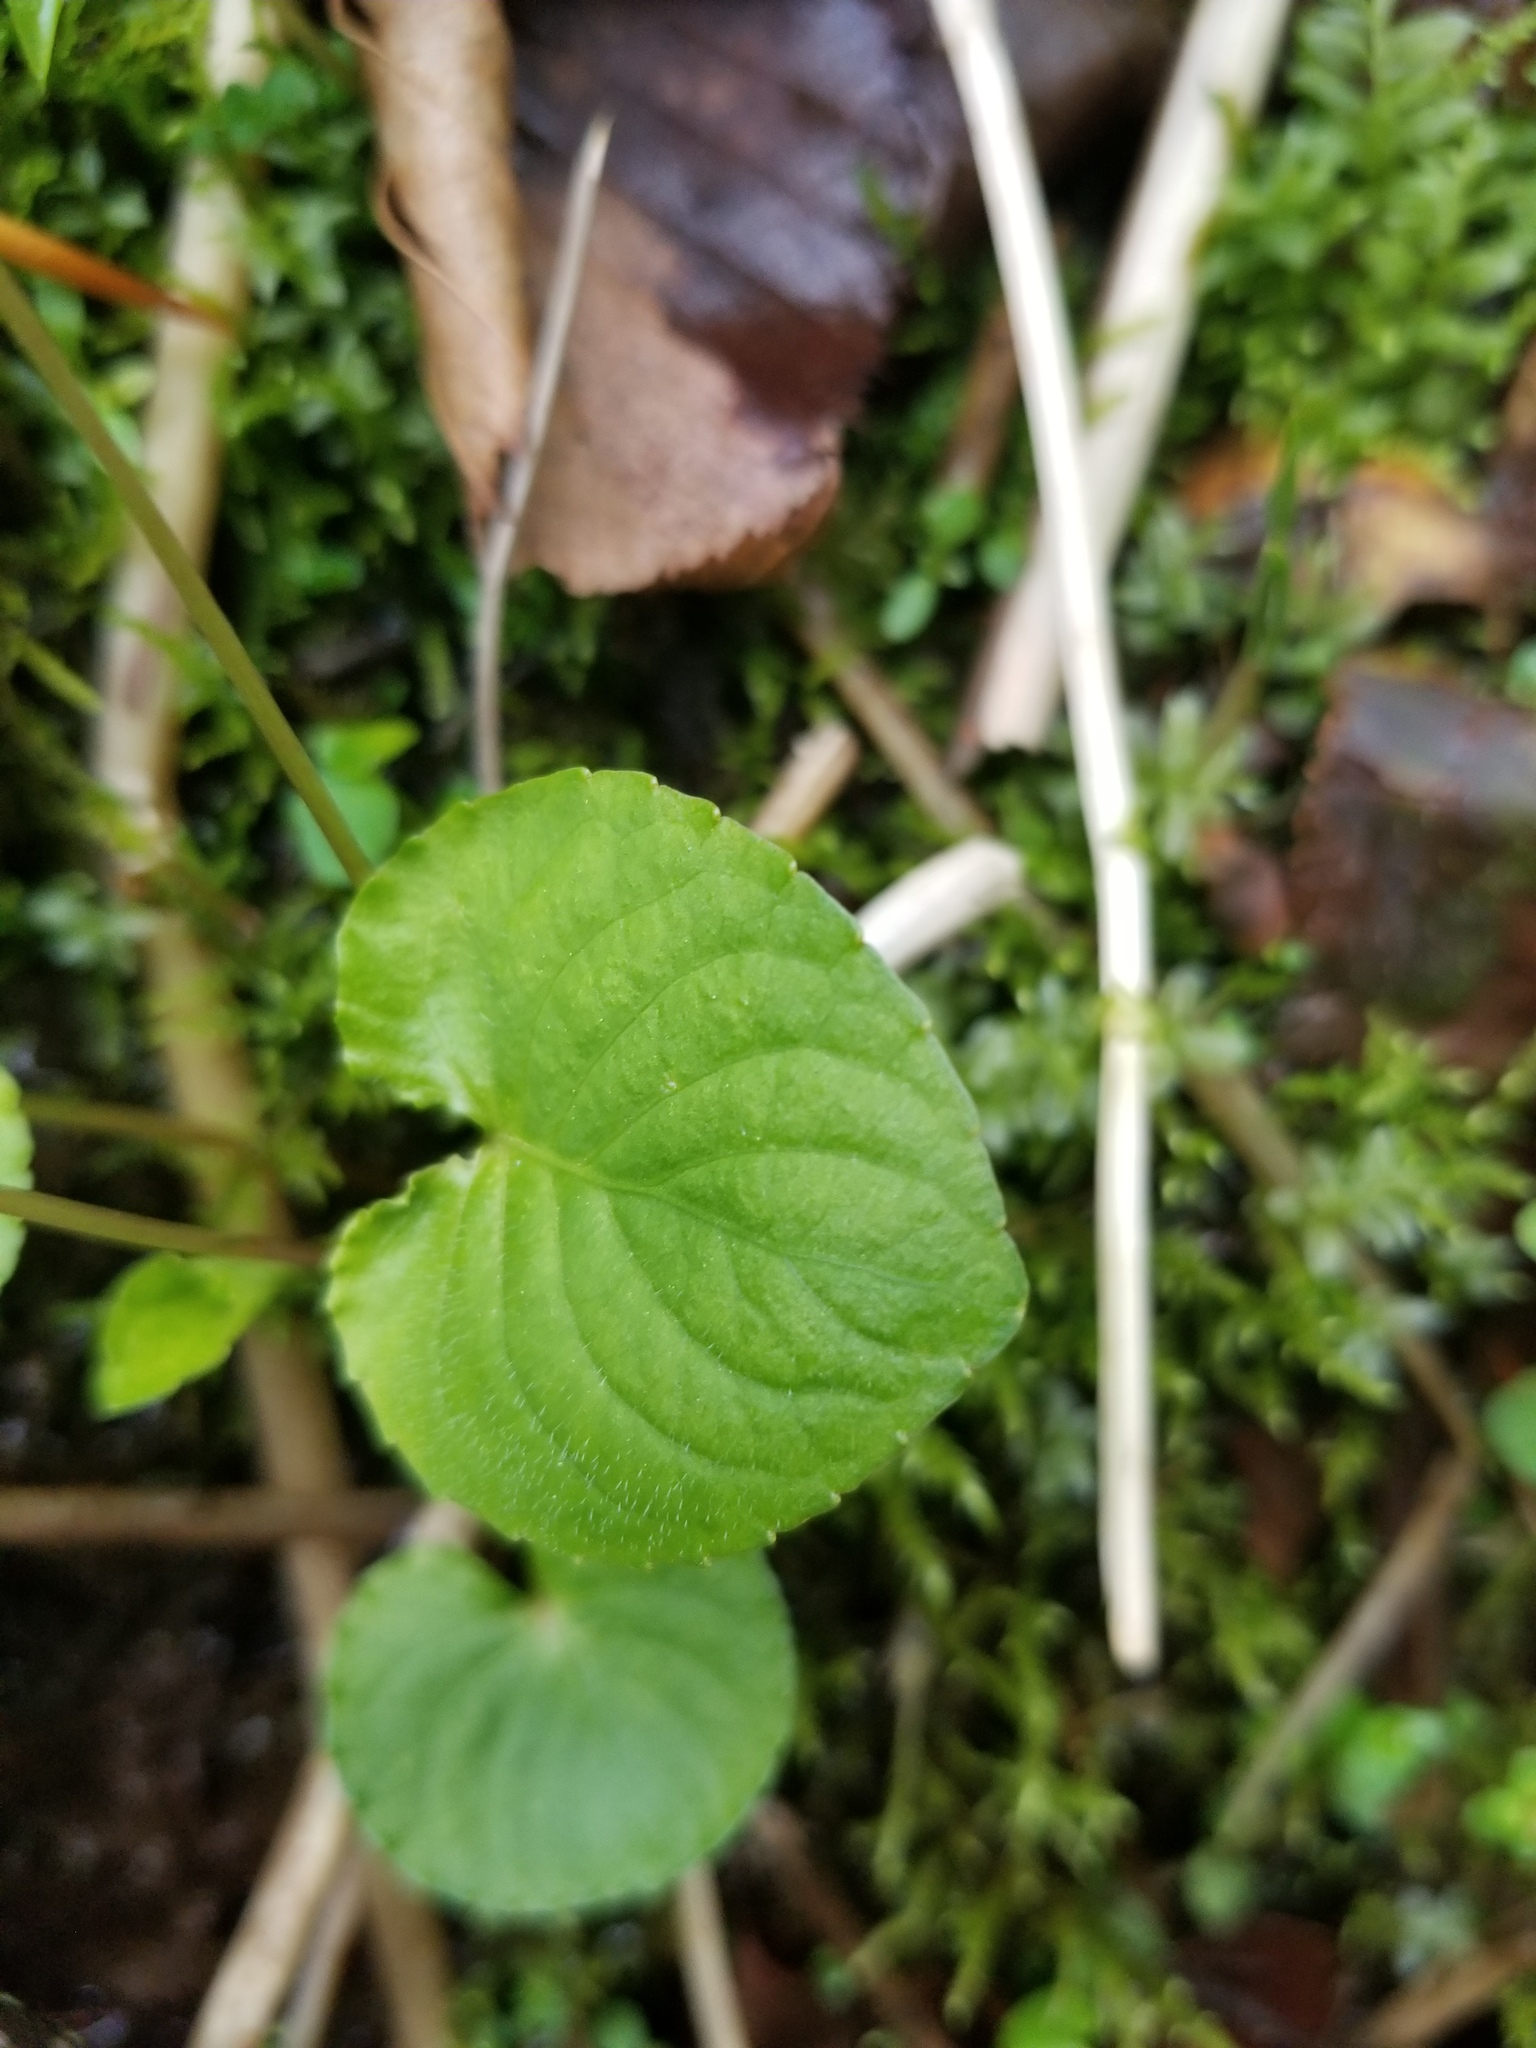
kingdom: Plantae
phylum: Tracheophyta
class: Magnoliopsida
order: Malpighiales
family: Violaceae
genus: Viola
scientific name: Viola blanda
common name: Sweet white violet
